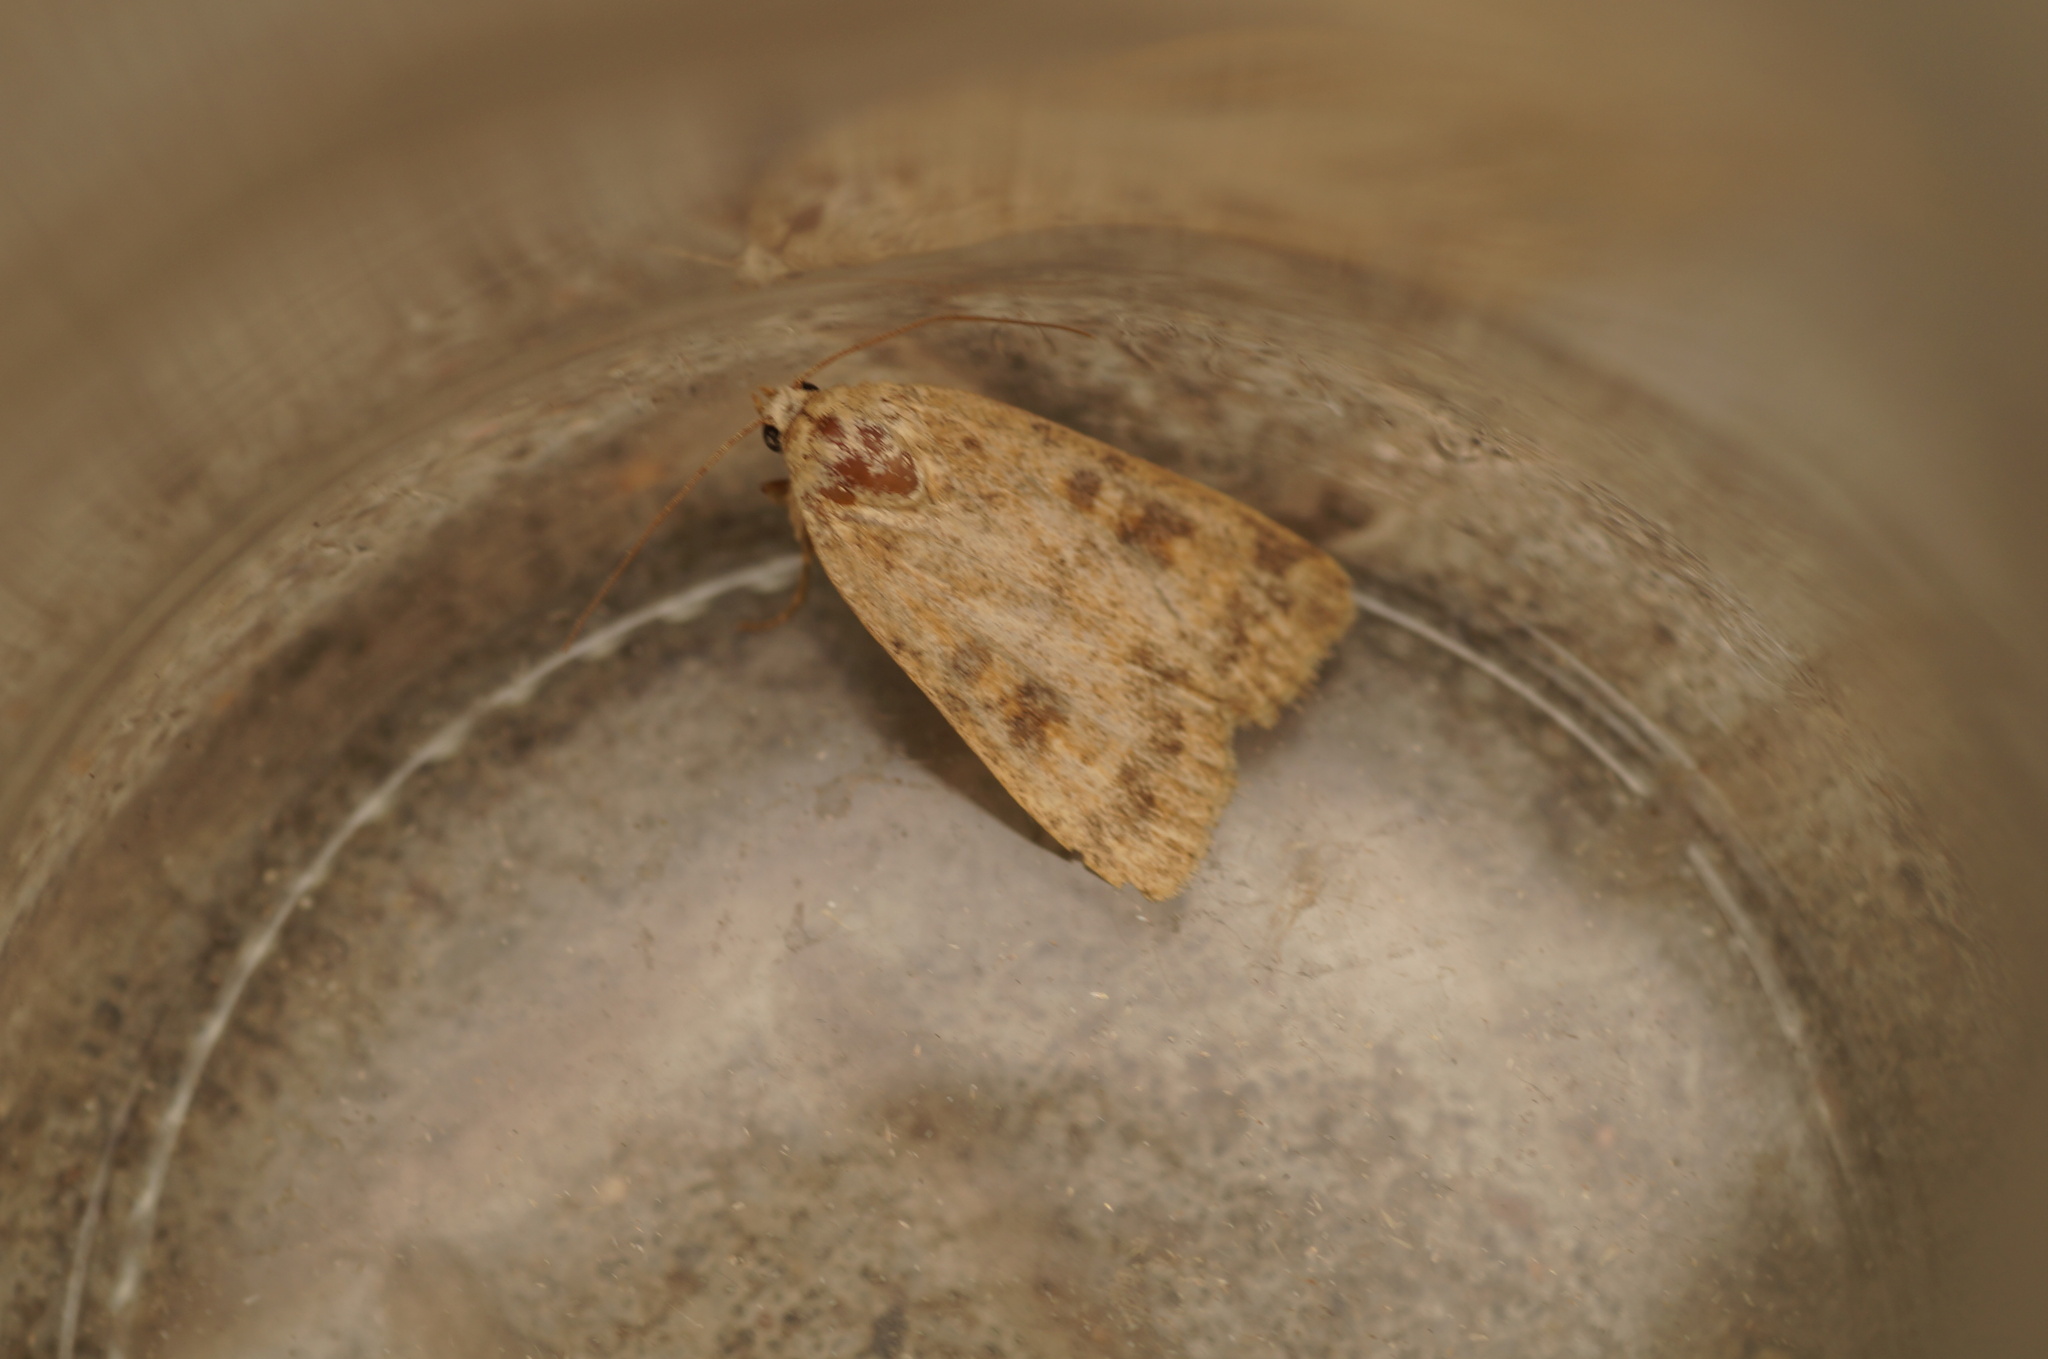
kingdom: Animalia
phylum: Arthropoda
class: Insecta
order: Lepidoptera
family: Noctuidae
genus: Caradrina
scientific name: Caradrina morpheus
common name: Mottled rustic
